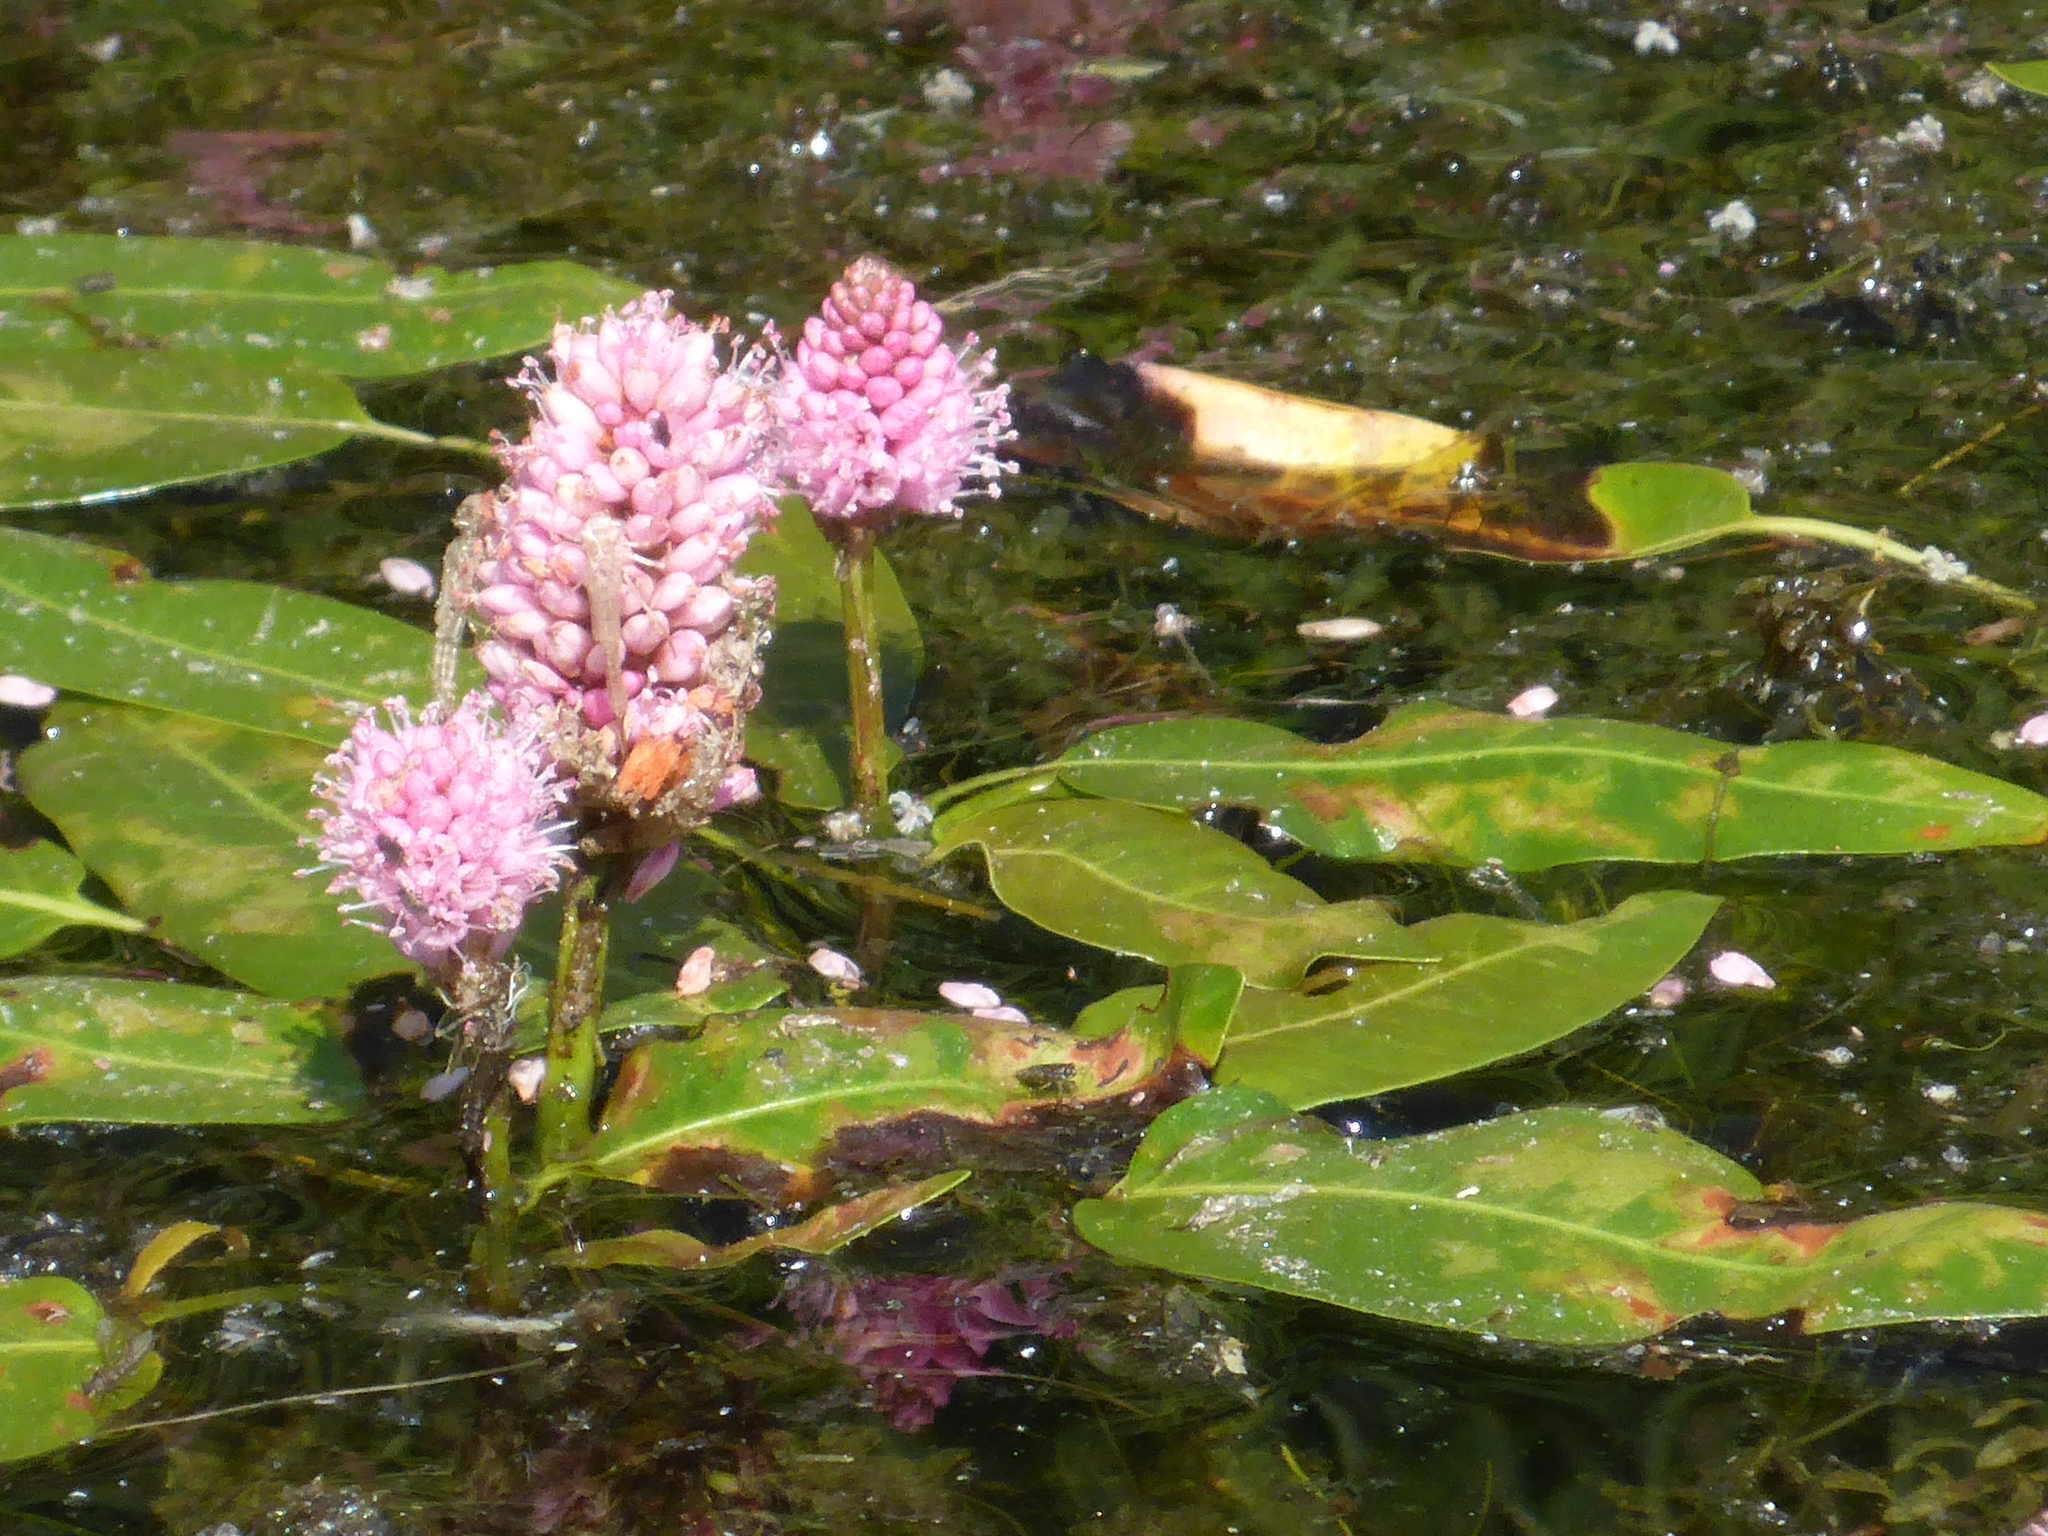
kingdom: Plantae
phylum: Tracheophyta
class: Magnoliopsida
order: Caryophyllales
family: Polygonaceae
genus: Persicaria
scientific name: Persicaria amphibia
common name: Amphibious bistort
